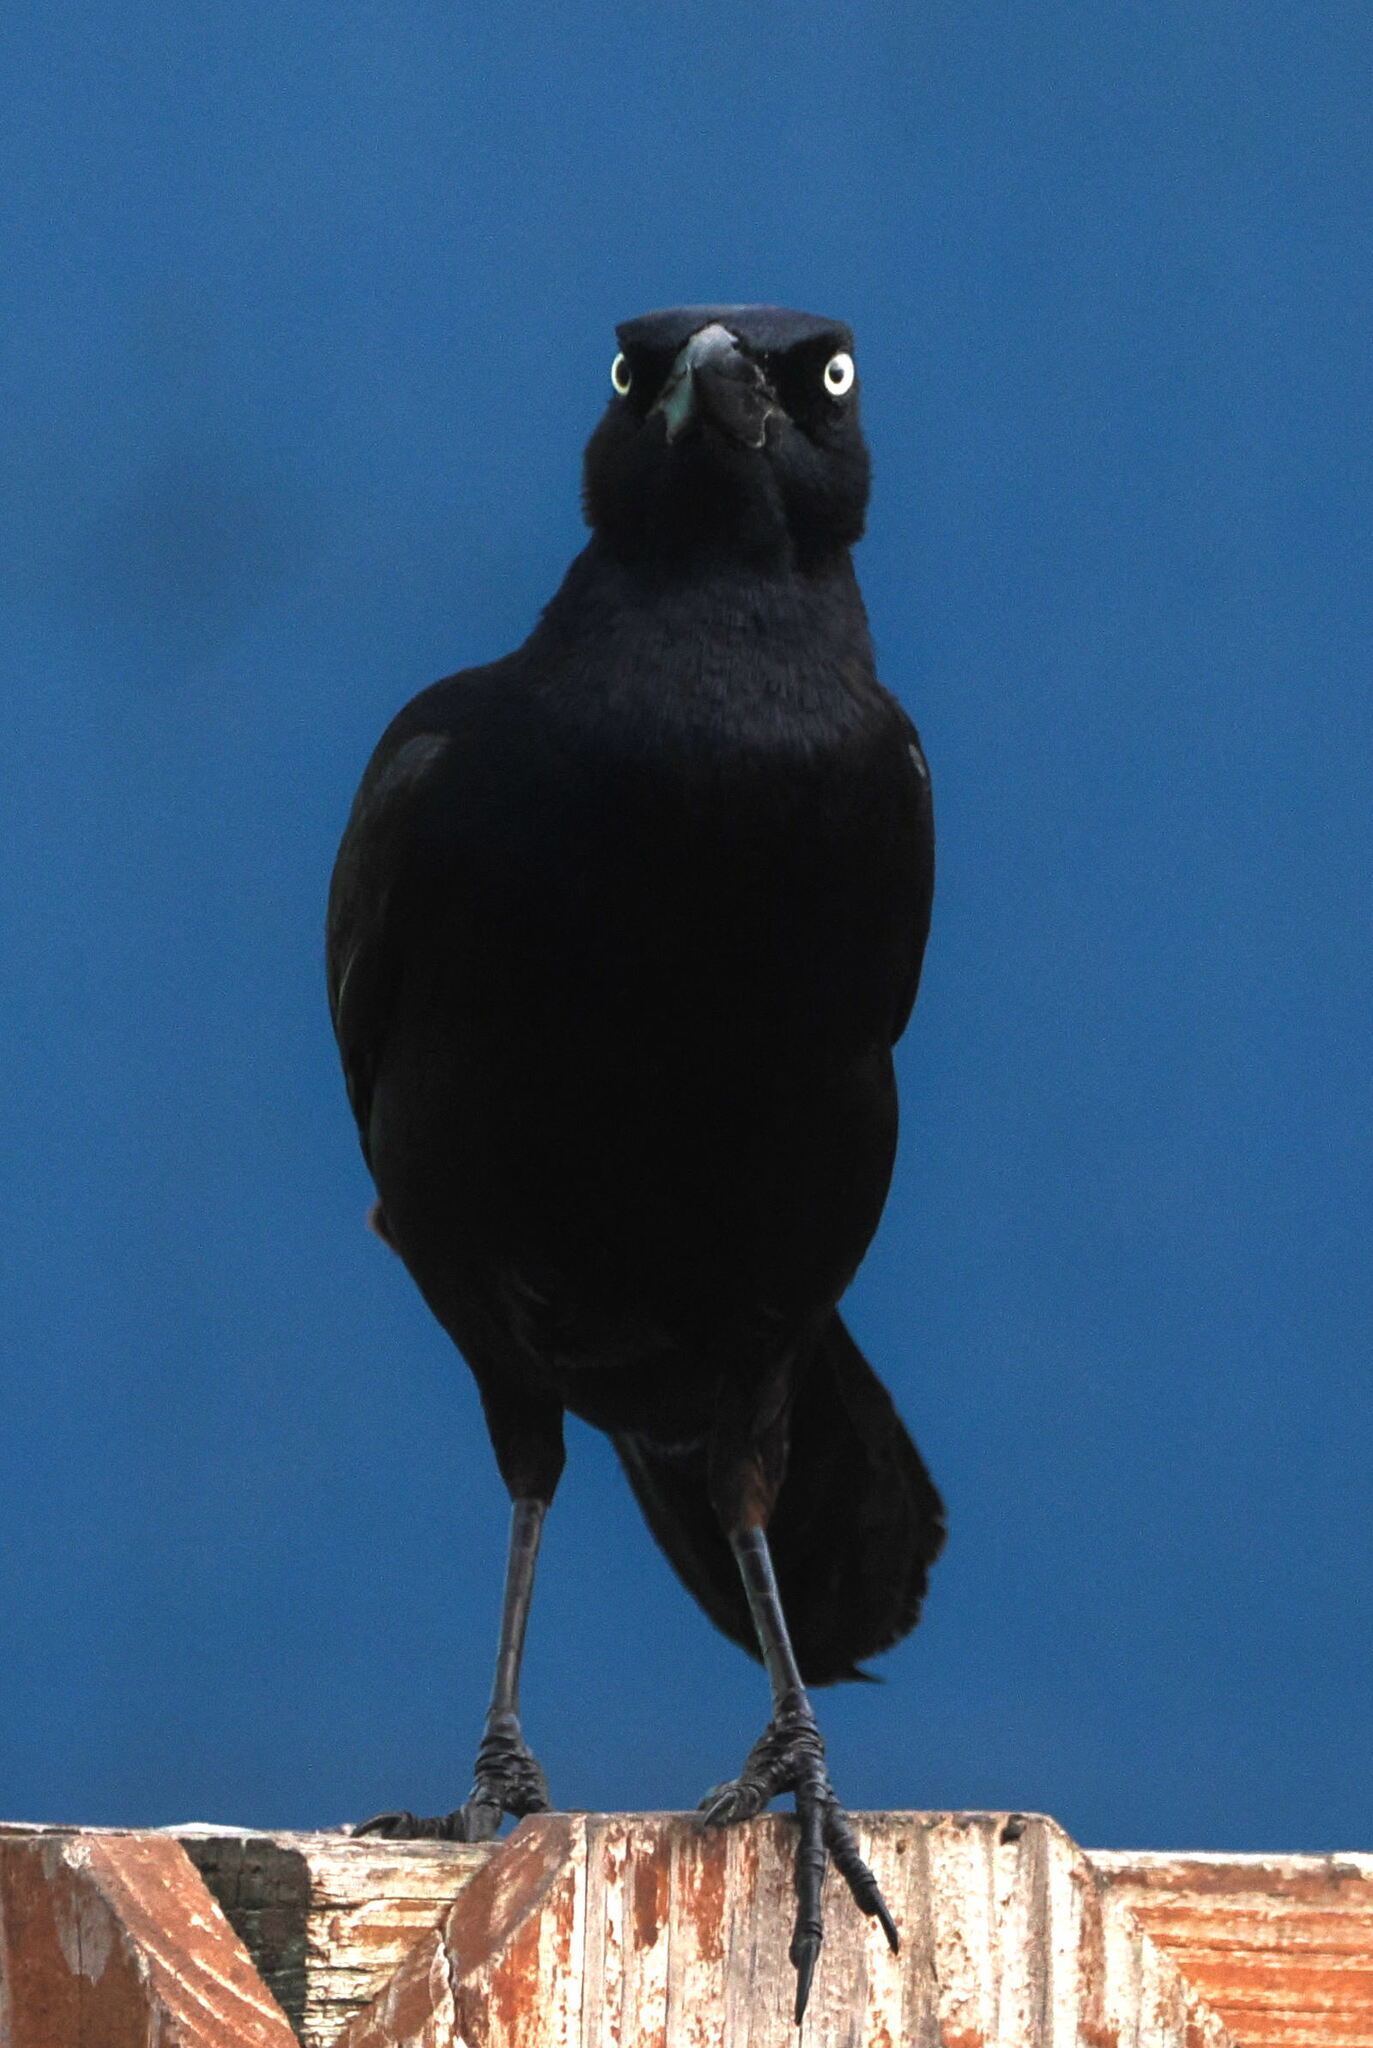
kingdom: Animalia
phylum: Chordata
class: Aves
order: Passeriformes
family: Icteridae
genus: Quiscalus
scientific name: Quiscalus mexicanus
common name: Great-tailed grackle
